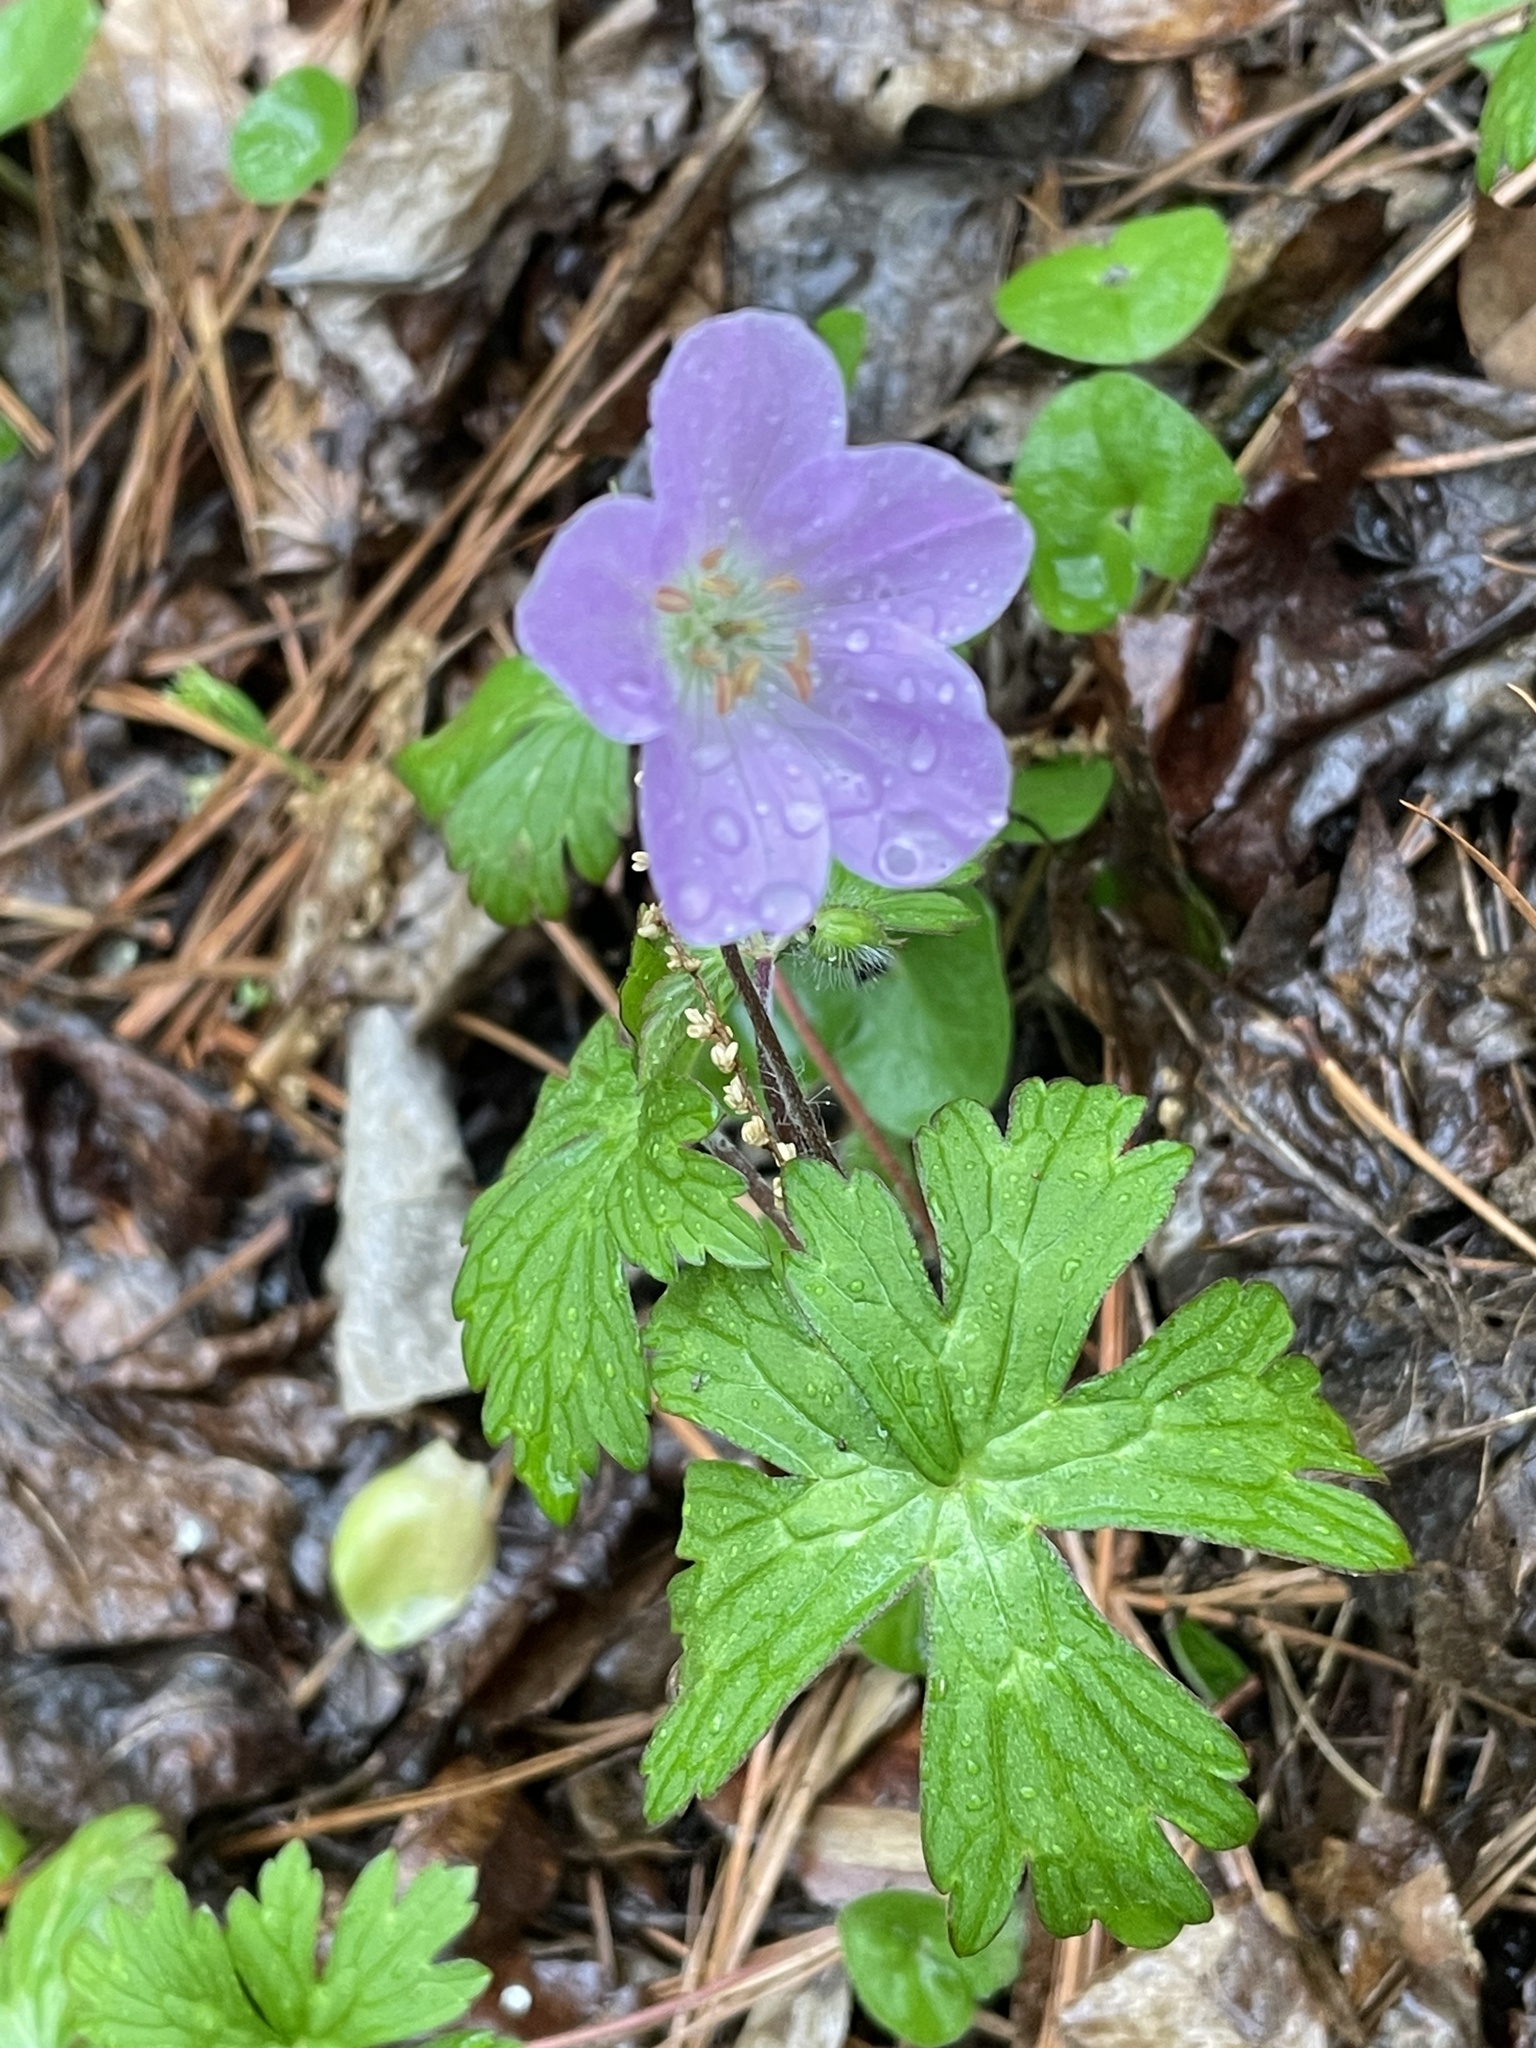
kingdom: Plantae
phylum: Tracheophyta
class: Magnoliopsida
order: Geraniales
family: Geraniaceae
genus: Geranium
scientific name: Geranium maculatum
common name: Spotted geranium
